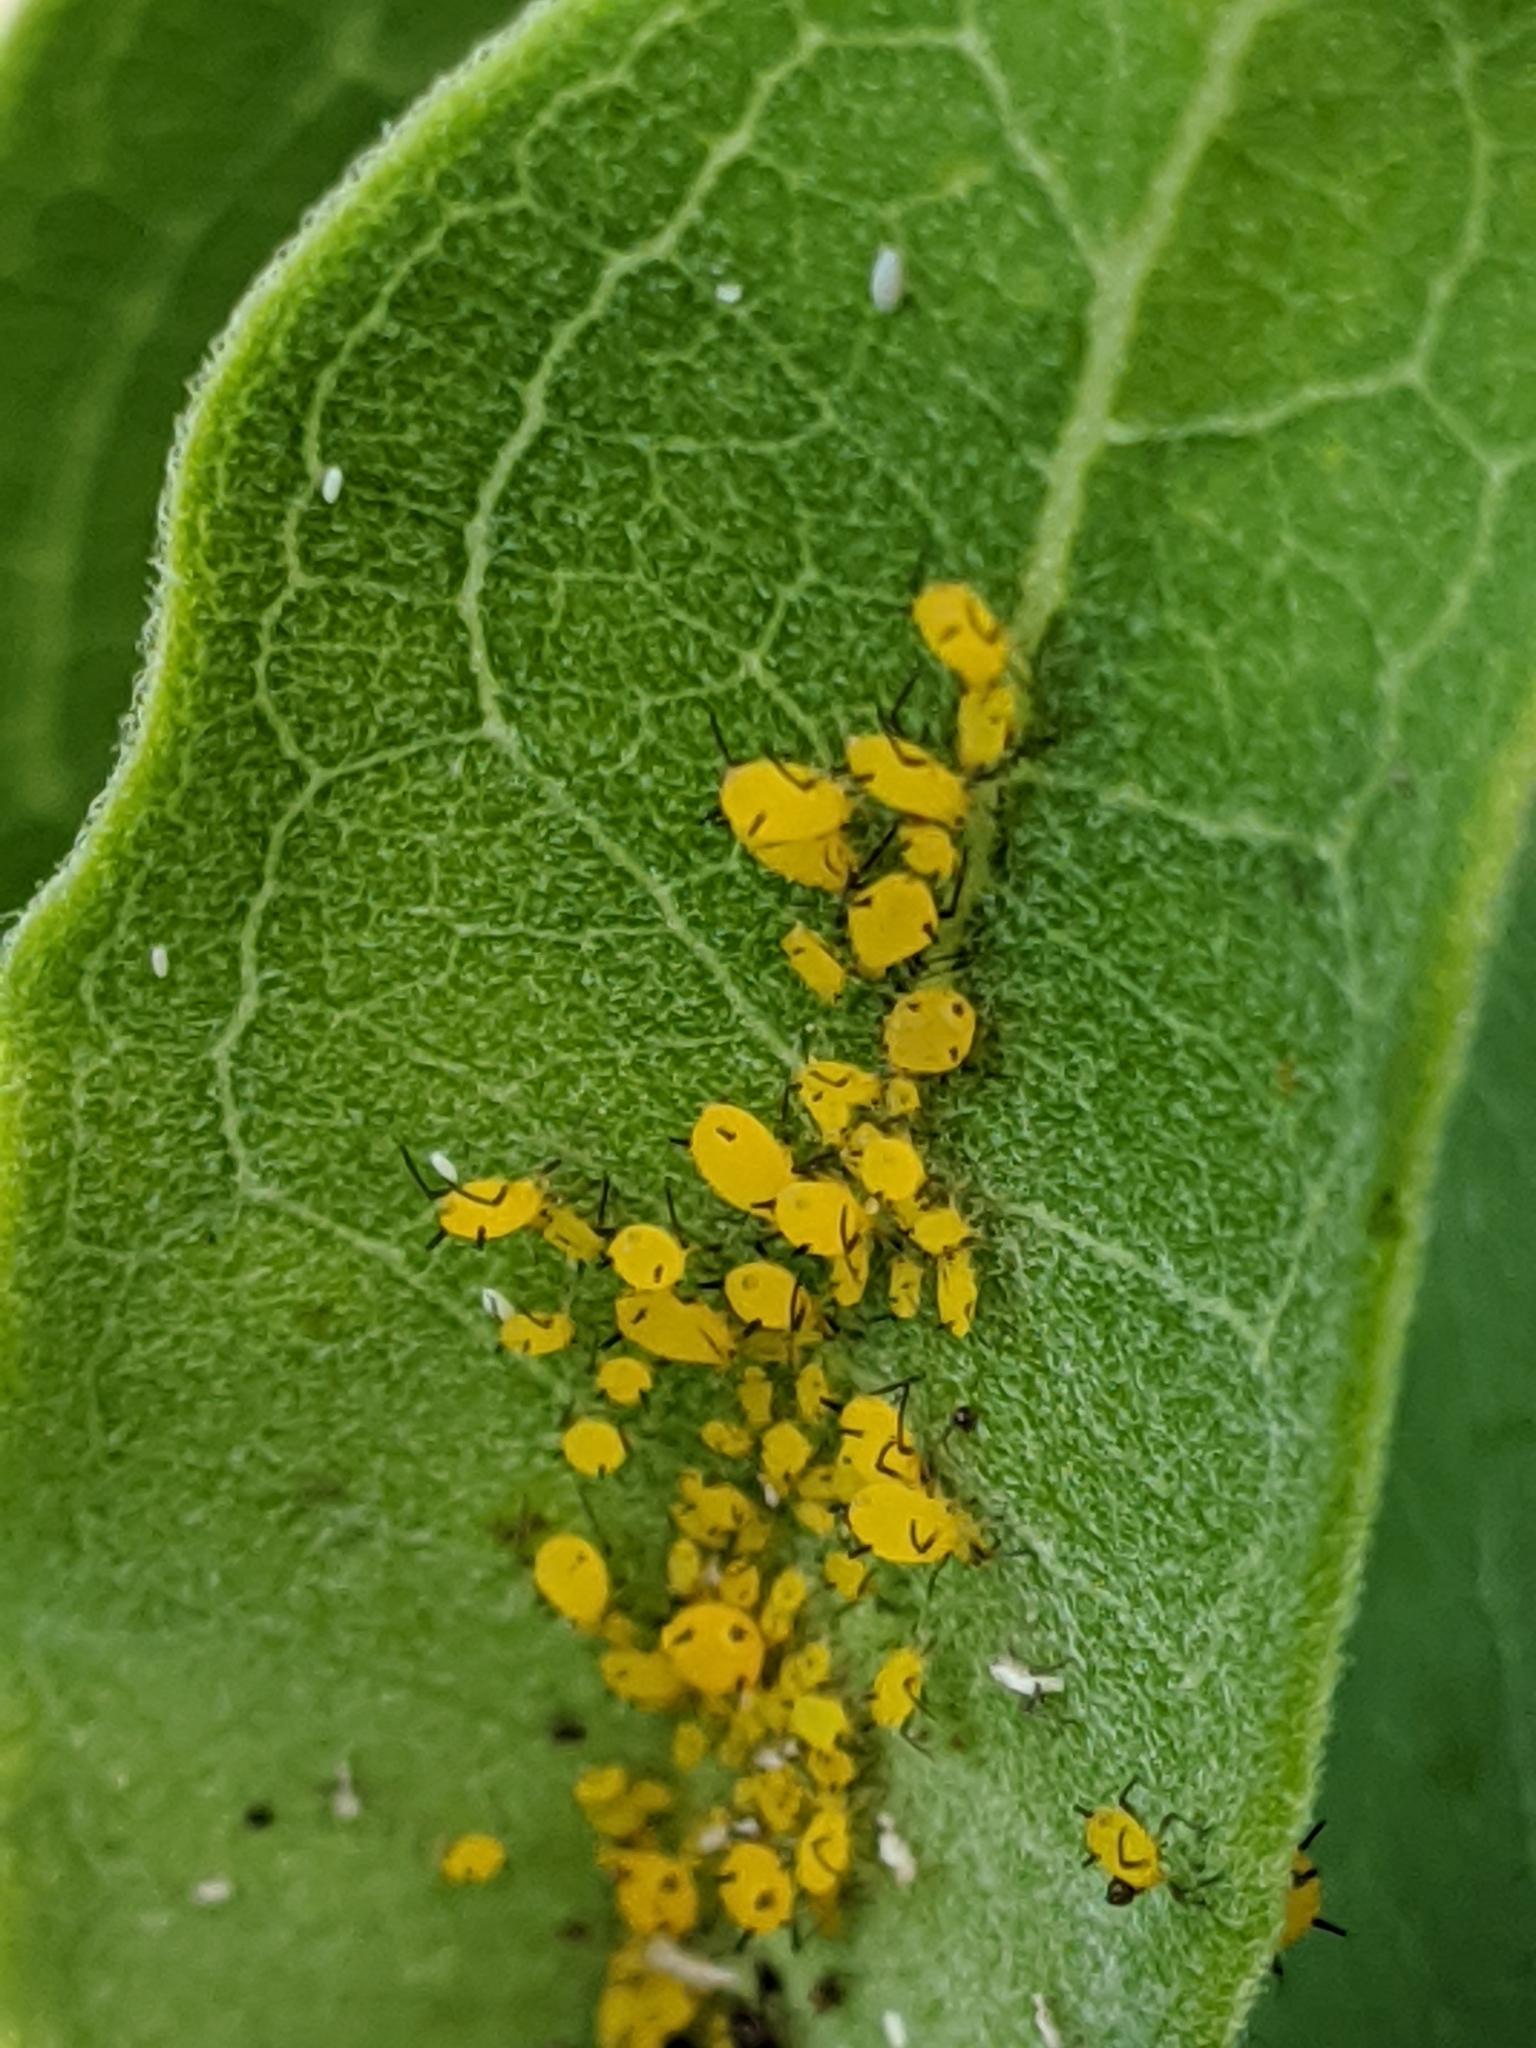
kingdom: Animalia
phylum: Arthropoda
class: Insecta
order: Hemiptera
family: Aphididae
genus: Aphis
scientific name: Aphis nerii
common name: Oleander aphid
